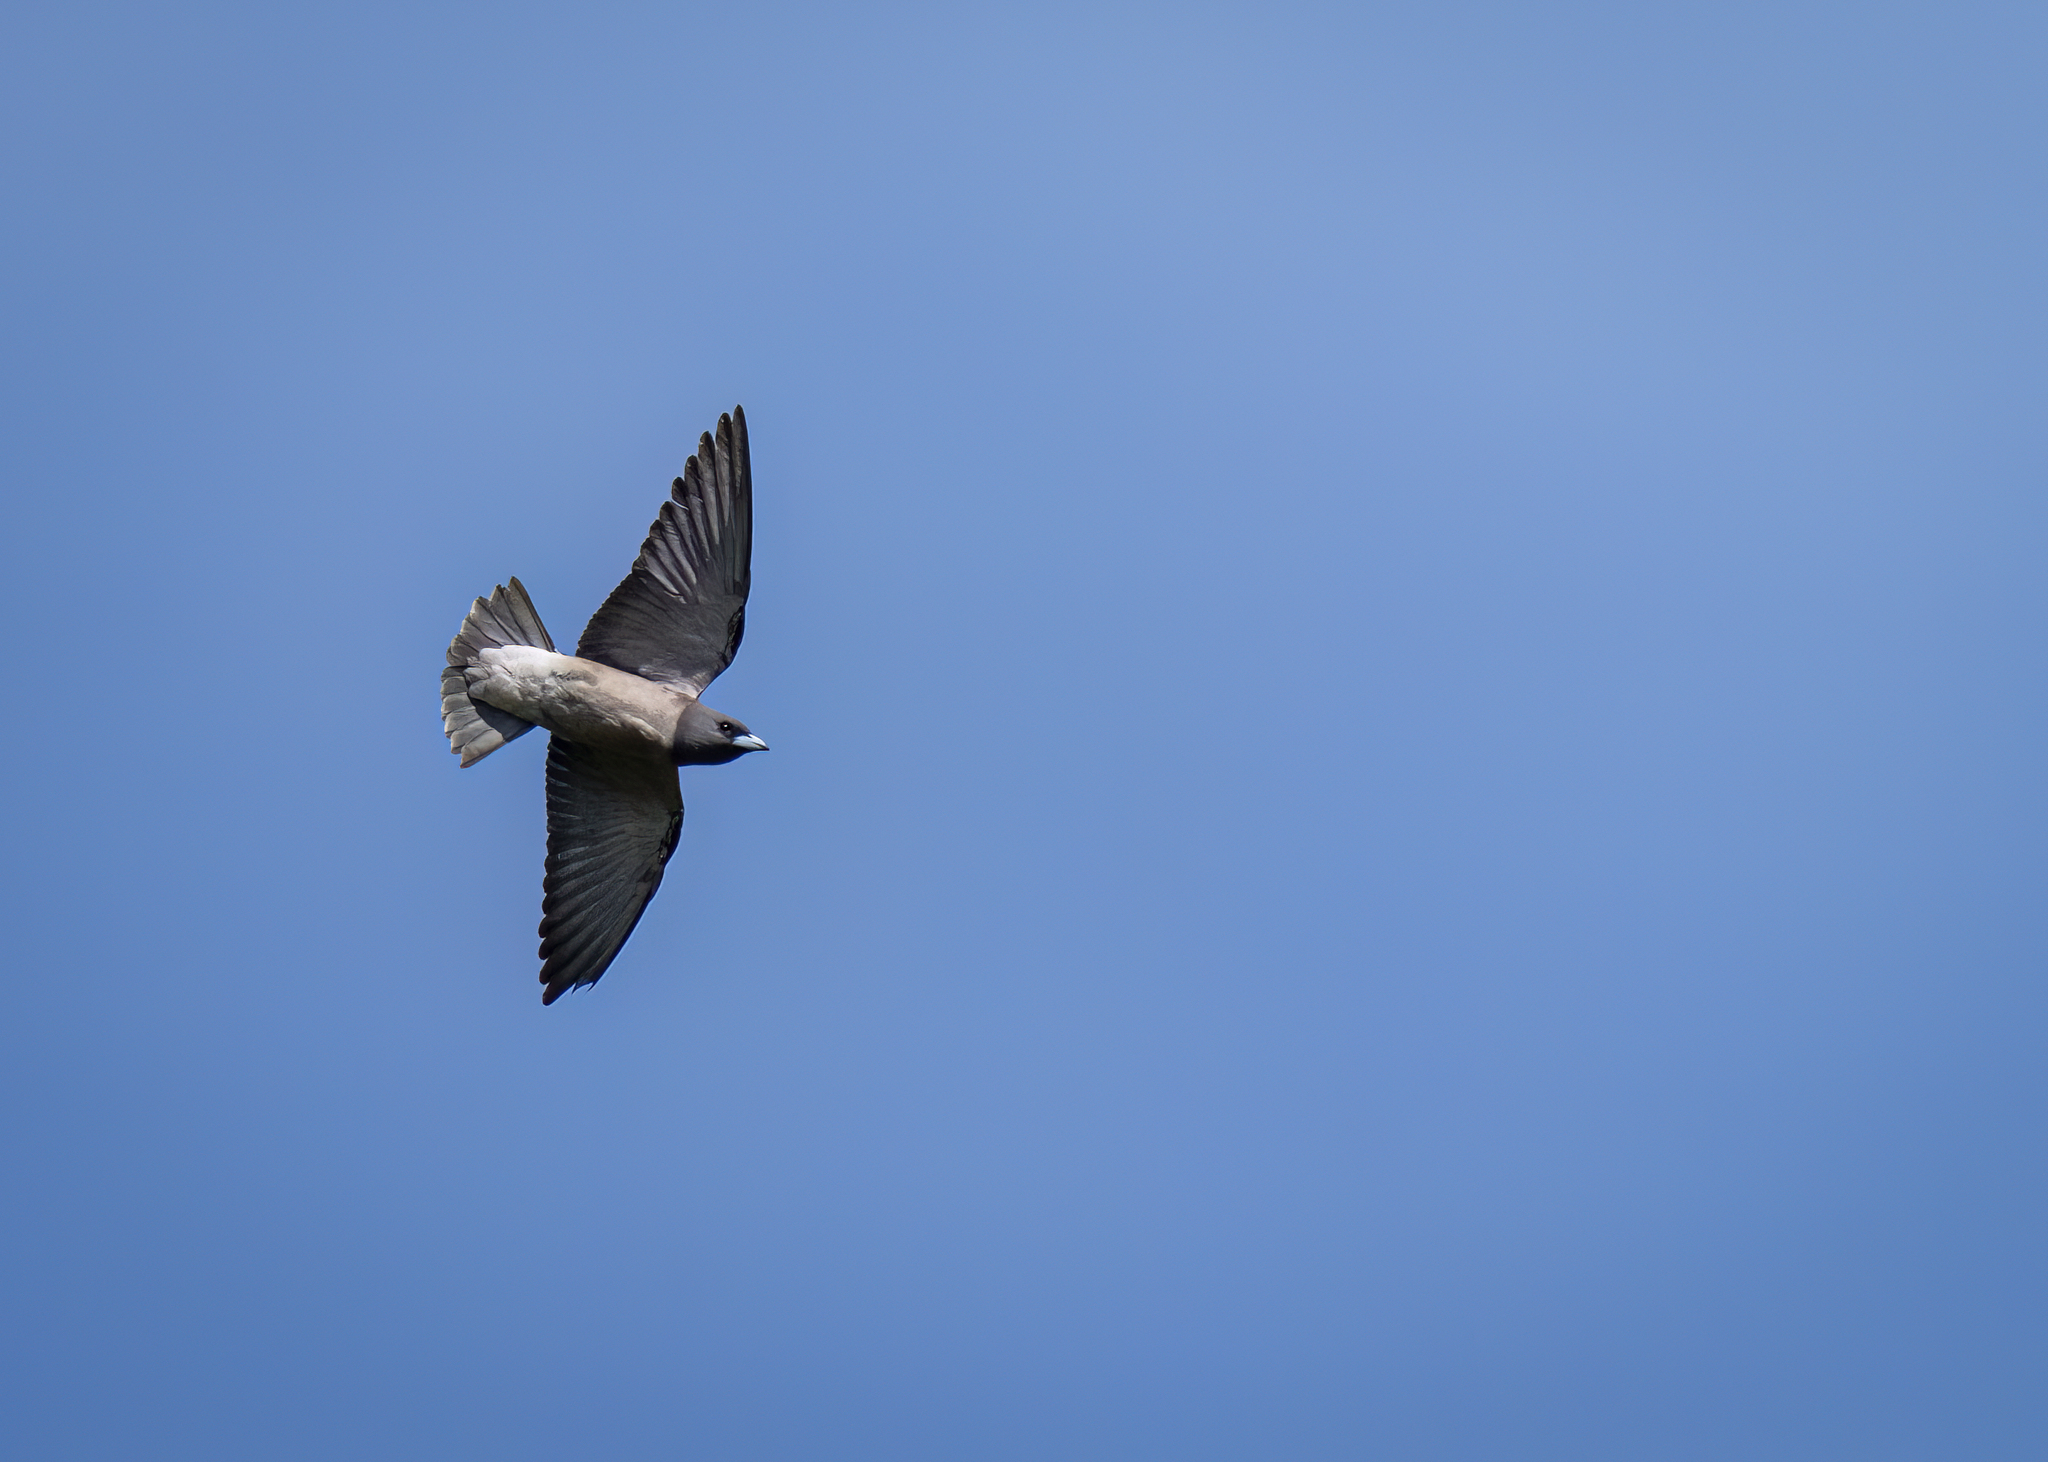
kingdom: Animalia
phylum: Chordata
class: Aves
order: Passeriformes
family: Artamidae
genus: Artamus
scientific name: Artamus fuscus
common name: Ashy woodswallow
